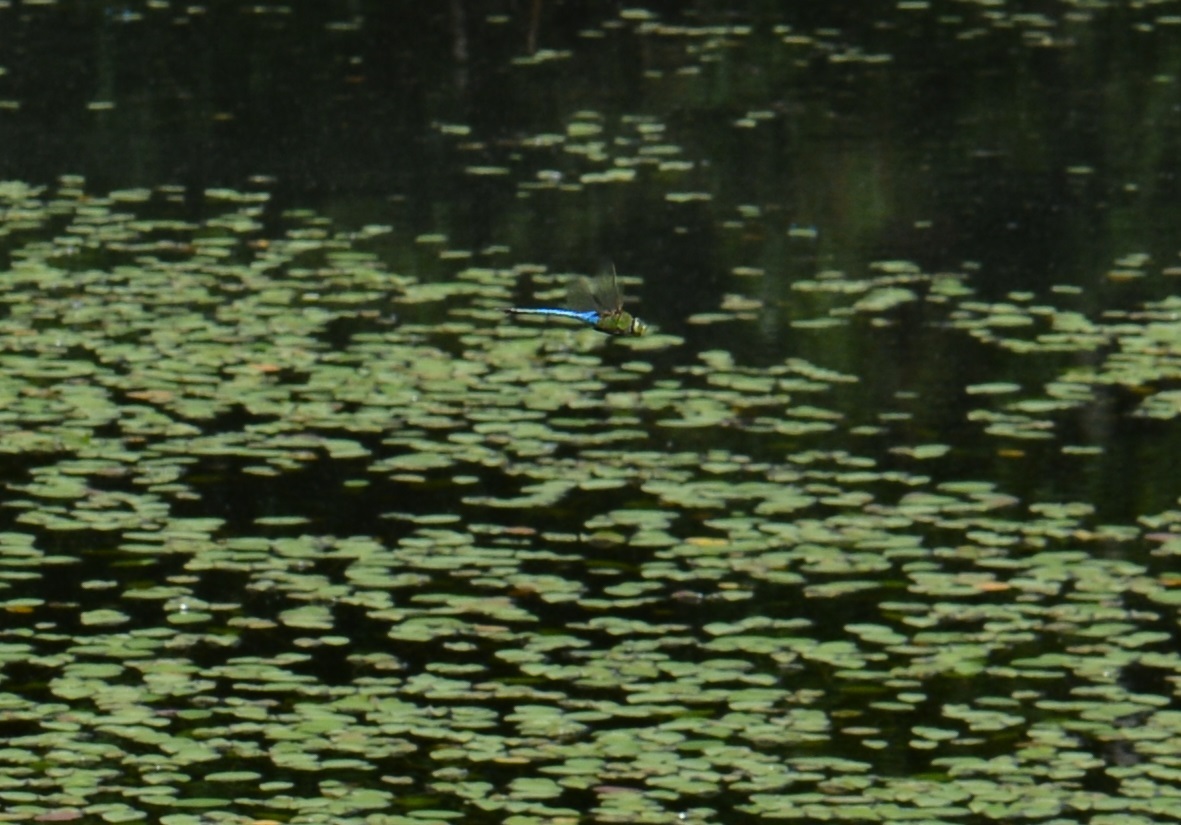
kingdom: Animalia
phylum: Arthropoda
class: Insecta
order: Odonata
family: Aeshnidae
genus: Anax
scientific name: Anax junius
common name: Common green darner
